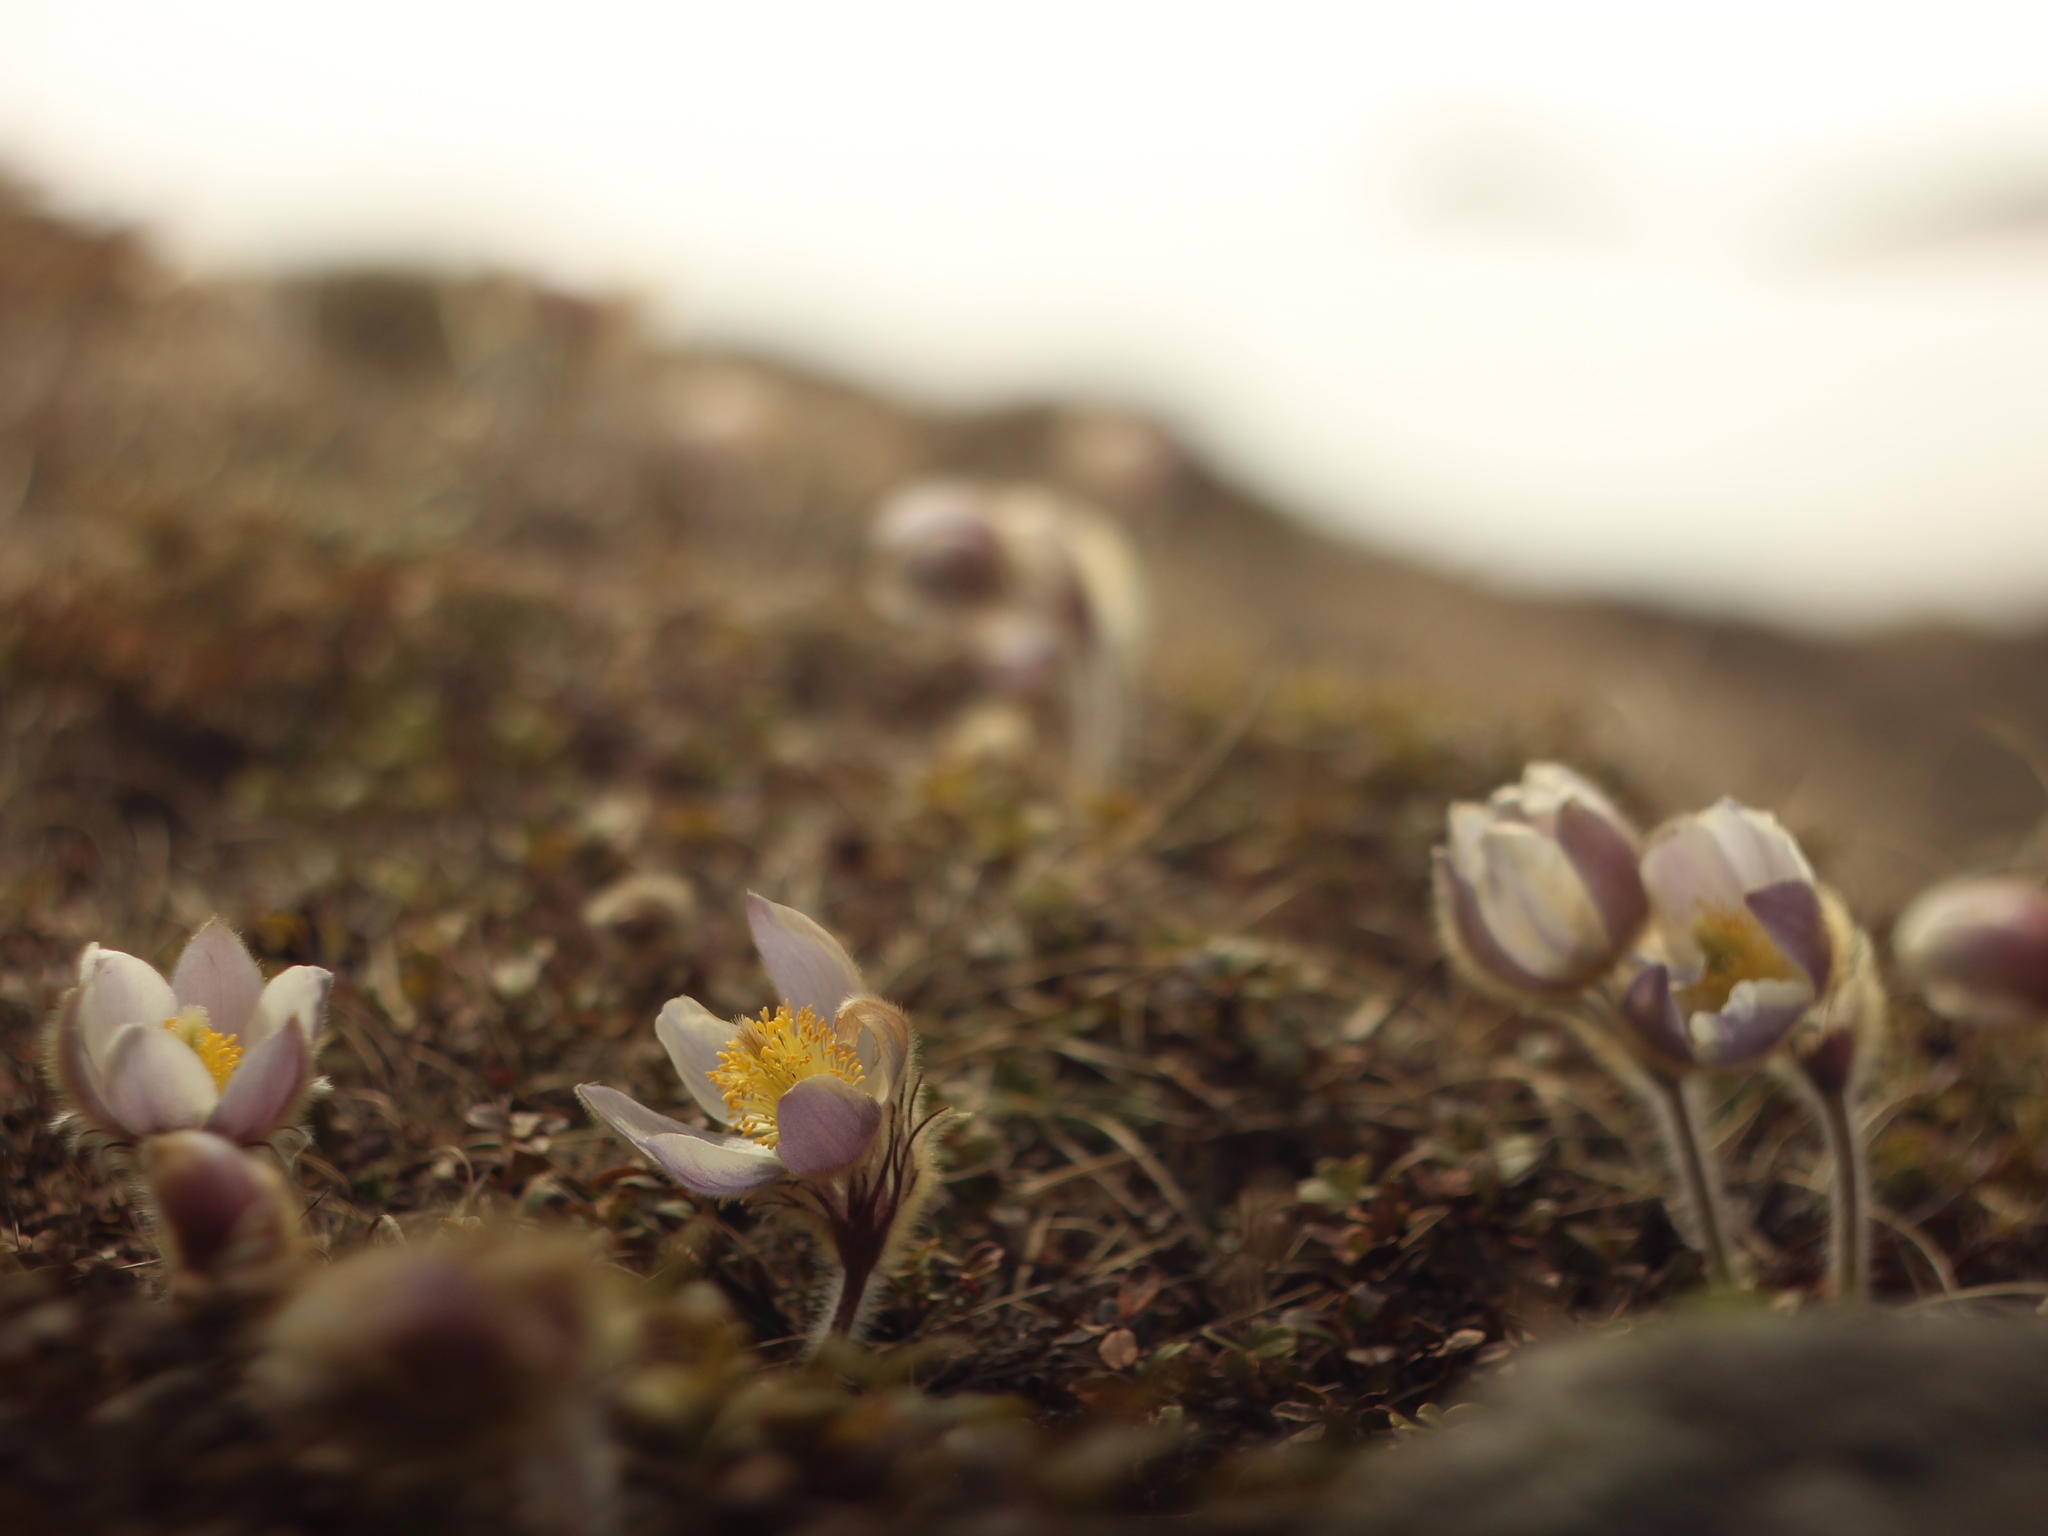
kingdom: Plantae
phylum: Tracheophyta
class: Magnoliopsida
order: Ranunculales
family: Ranunculaceae
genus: Pulsatilla
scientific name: Pulsatilla vernalis
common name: Spring pasque flower
